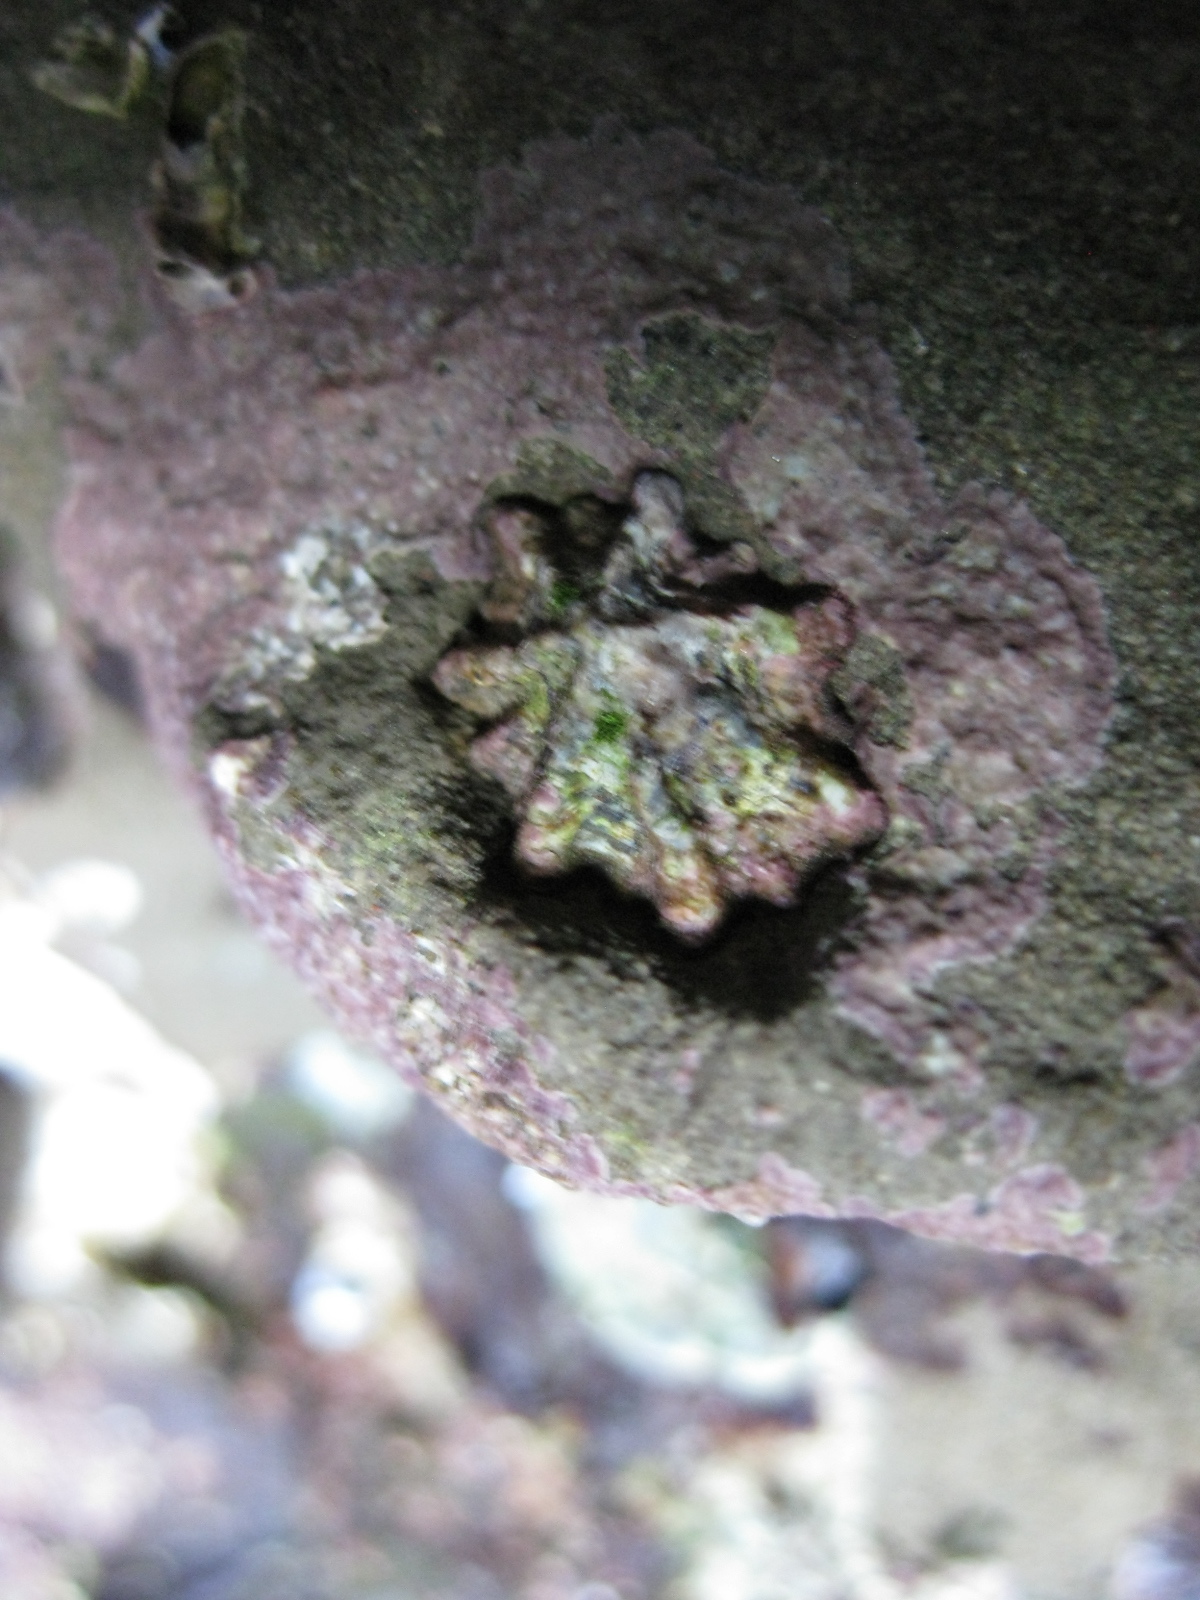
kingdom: Animalia
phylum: Mollusca
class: Gastropoda
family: Lottiidae
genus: Patelloida
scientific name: Patelloida corticata
